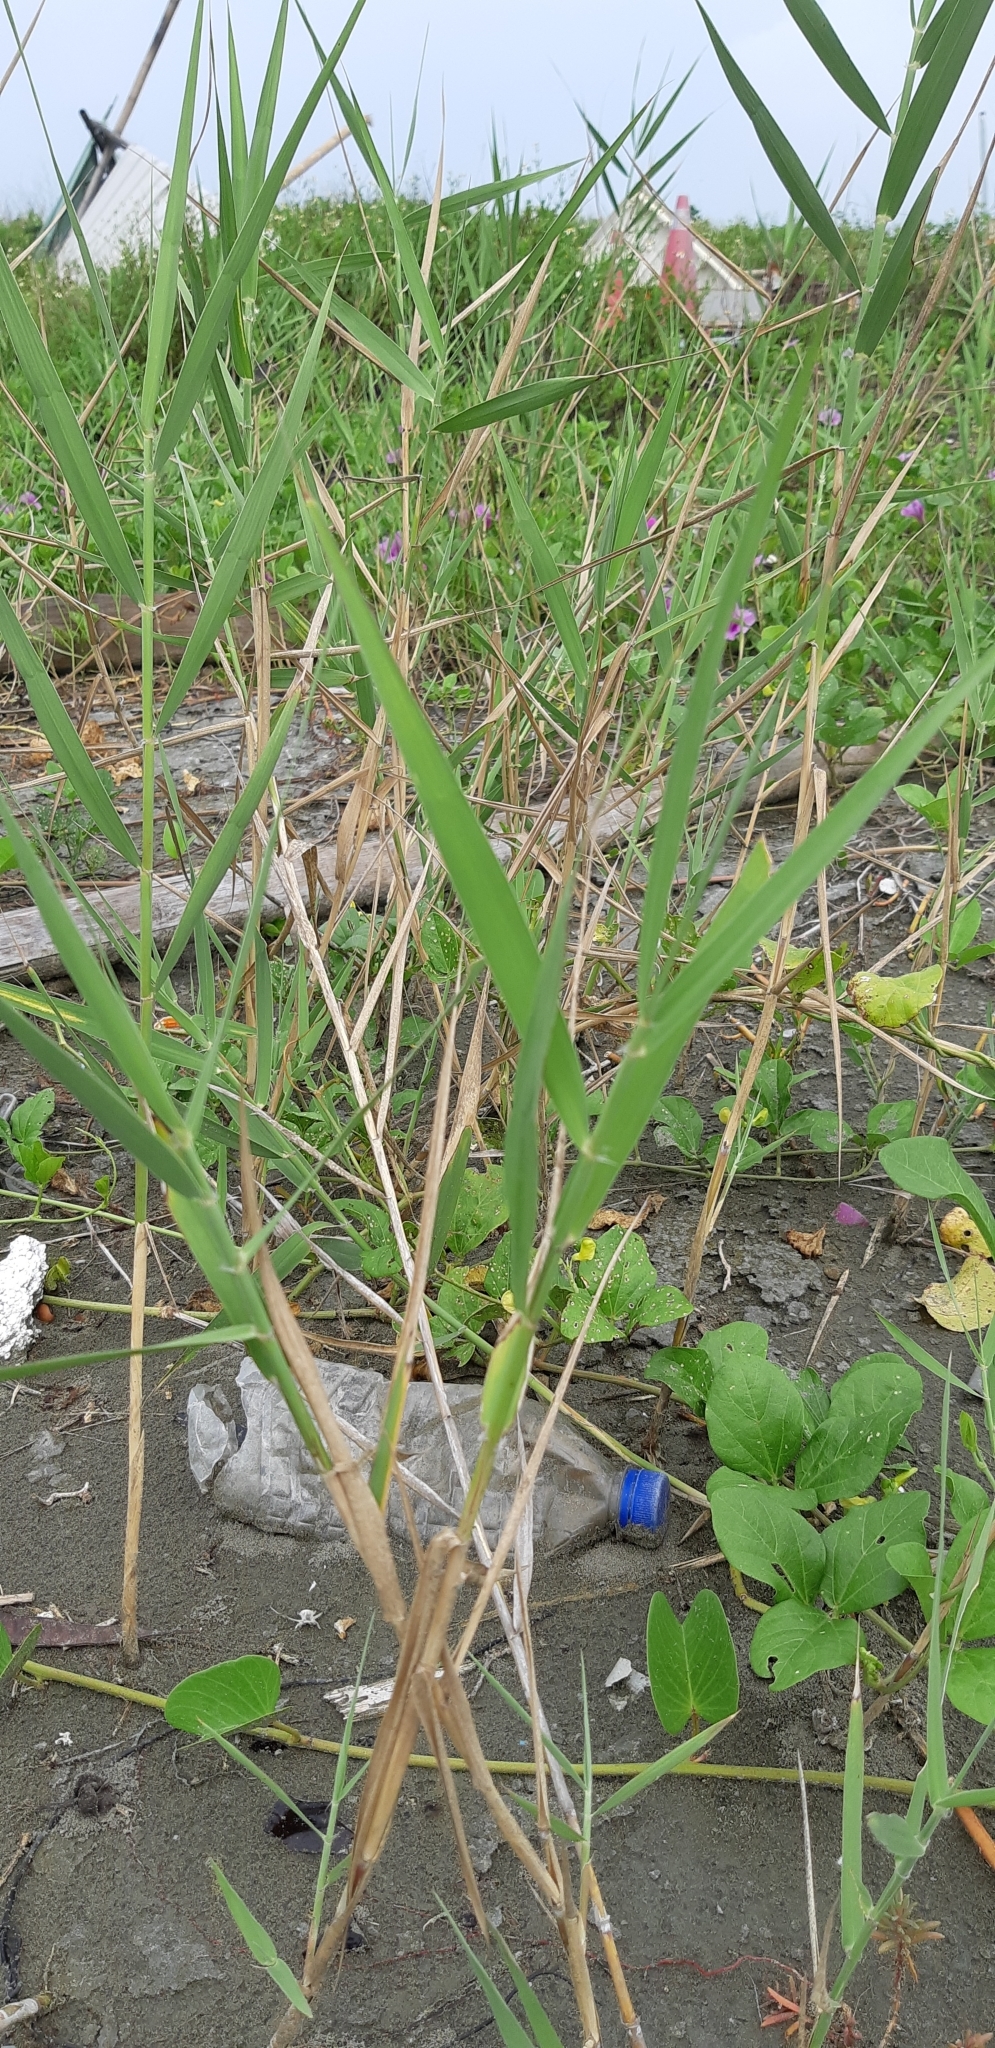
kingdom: Plantae
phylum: Tracheophyta
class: Liliopsida
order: Poales
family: Poaceae
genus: Phragmites
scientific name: Phragmites australis
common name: Common reed
